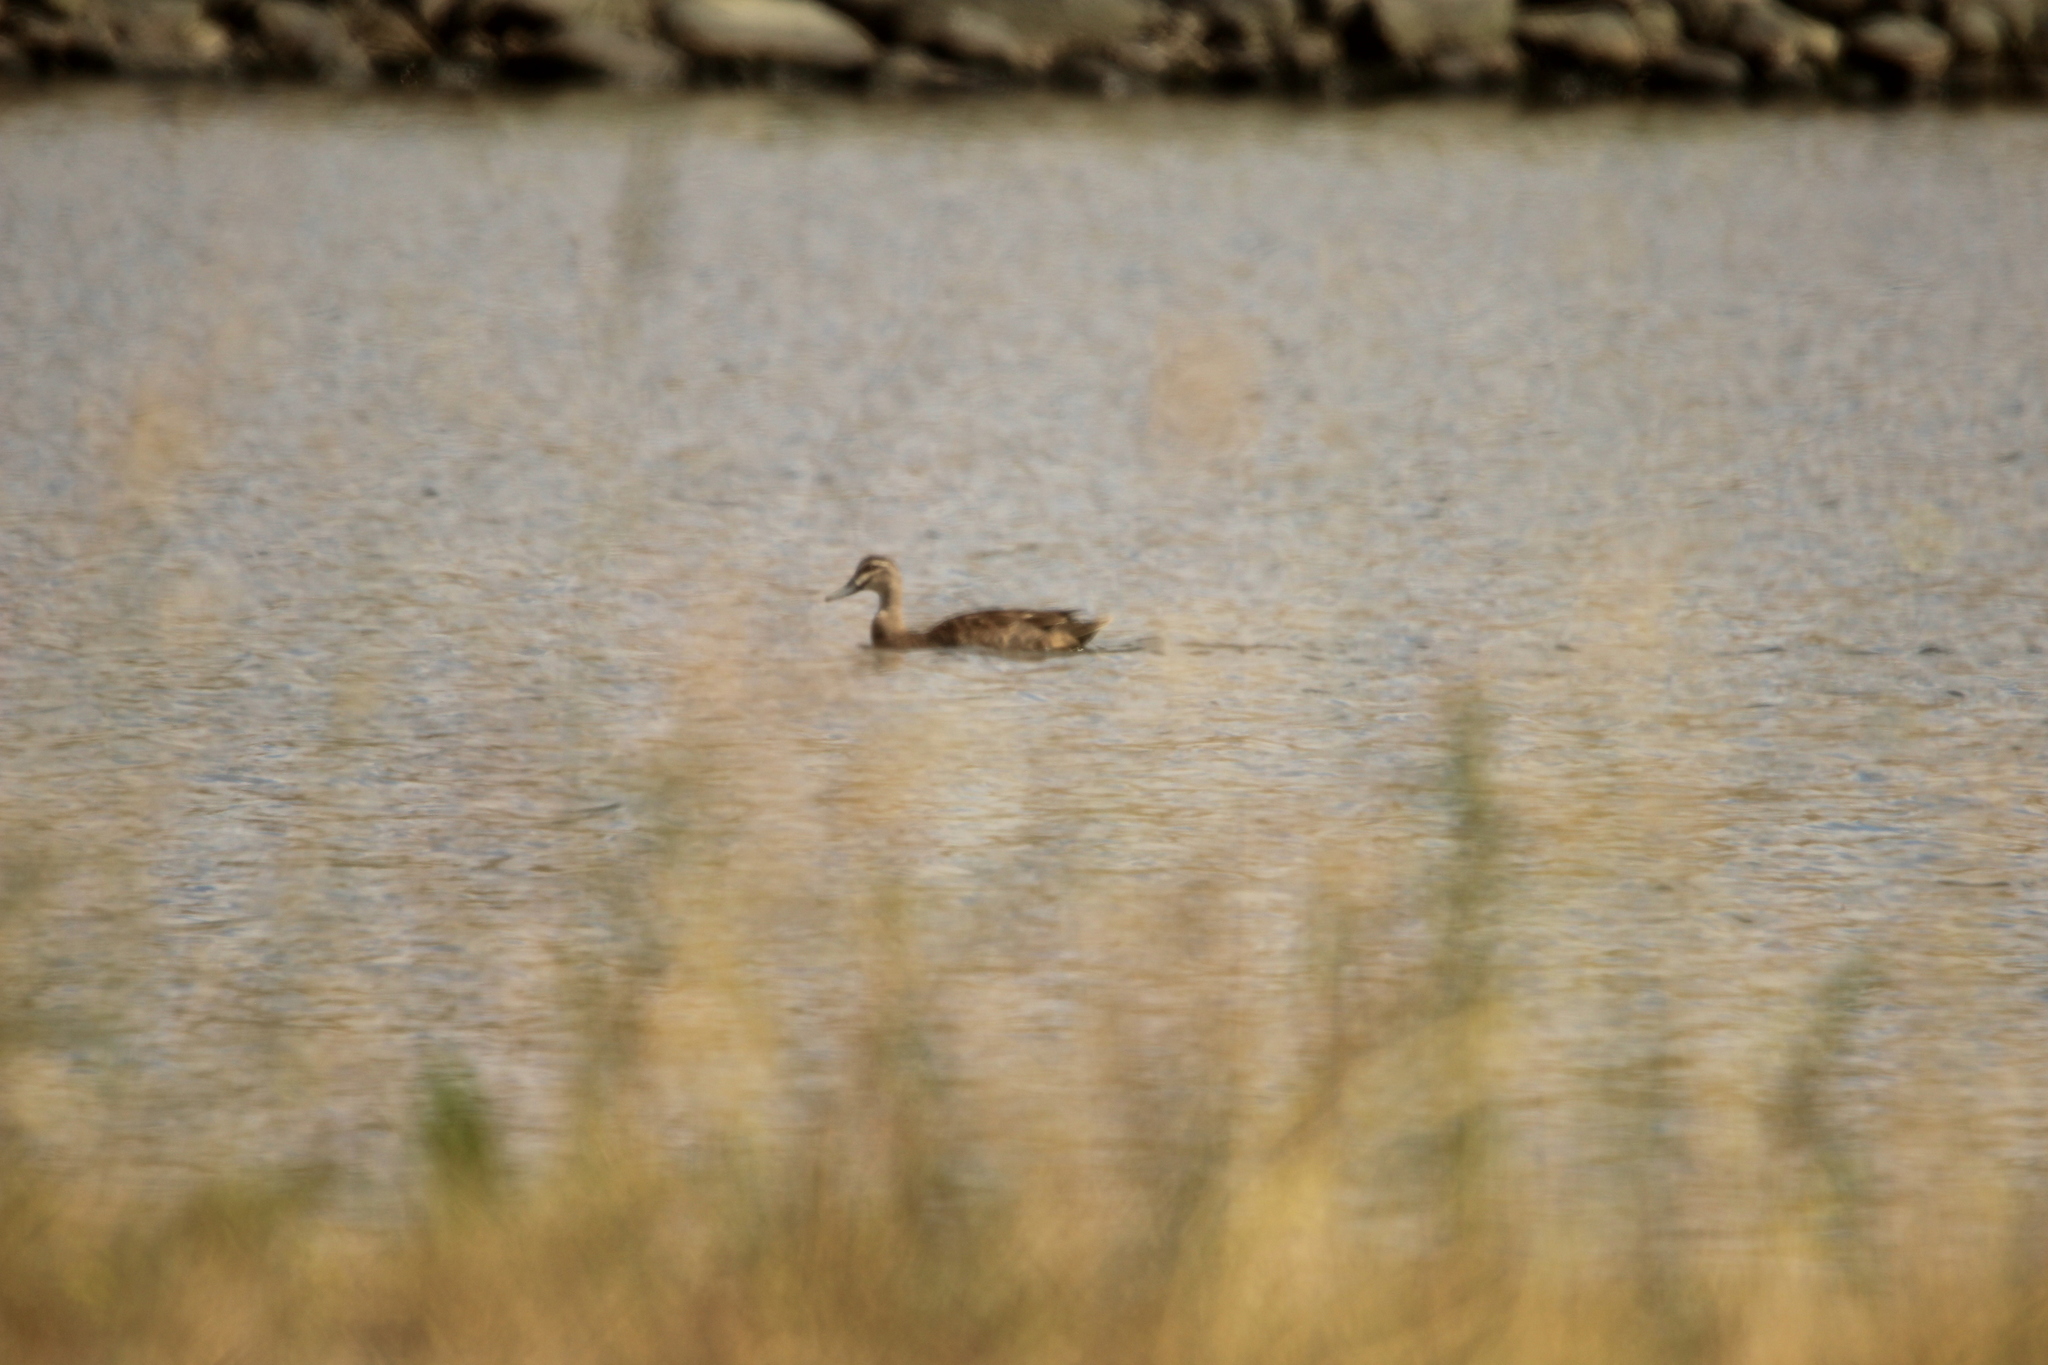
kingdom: Animalia
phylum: Chordata
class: Aves
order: Anseriformes
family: Anatidae
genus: Anas
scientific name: Anas superciliosa
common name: Pacific black duck
